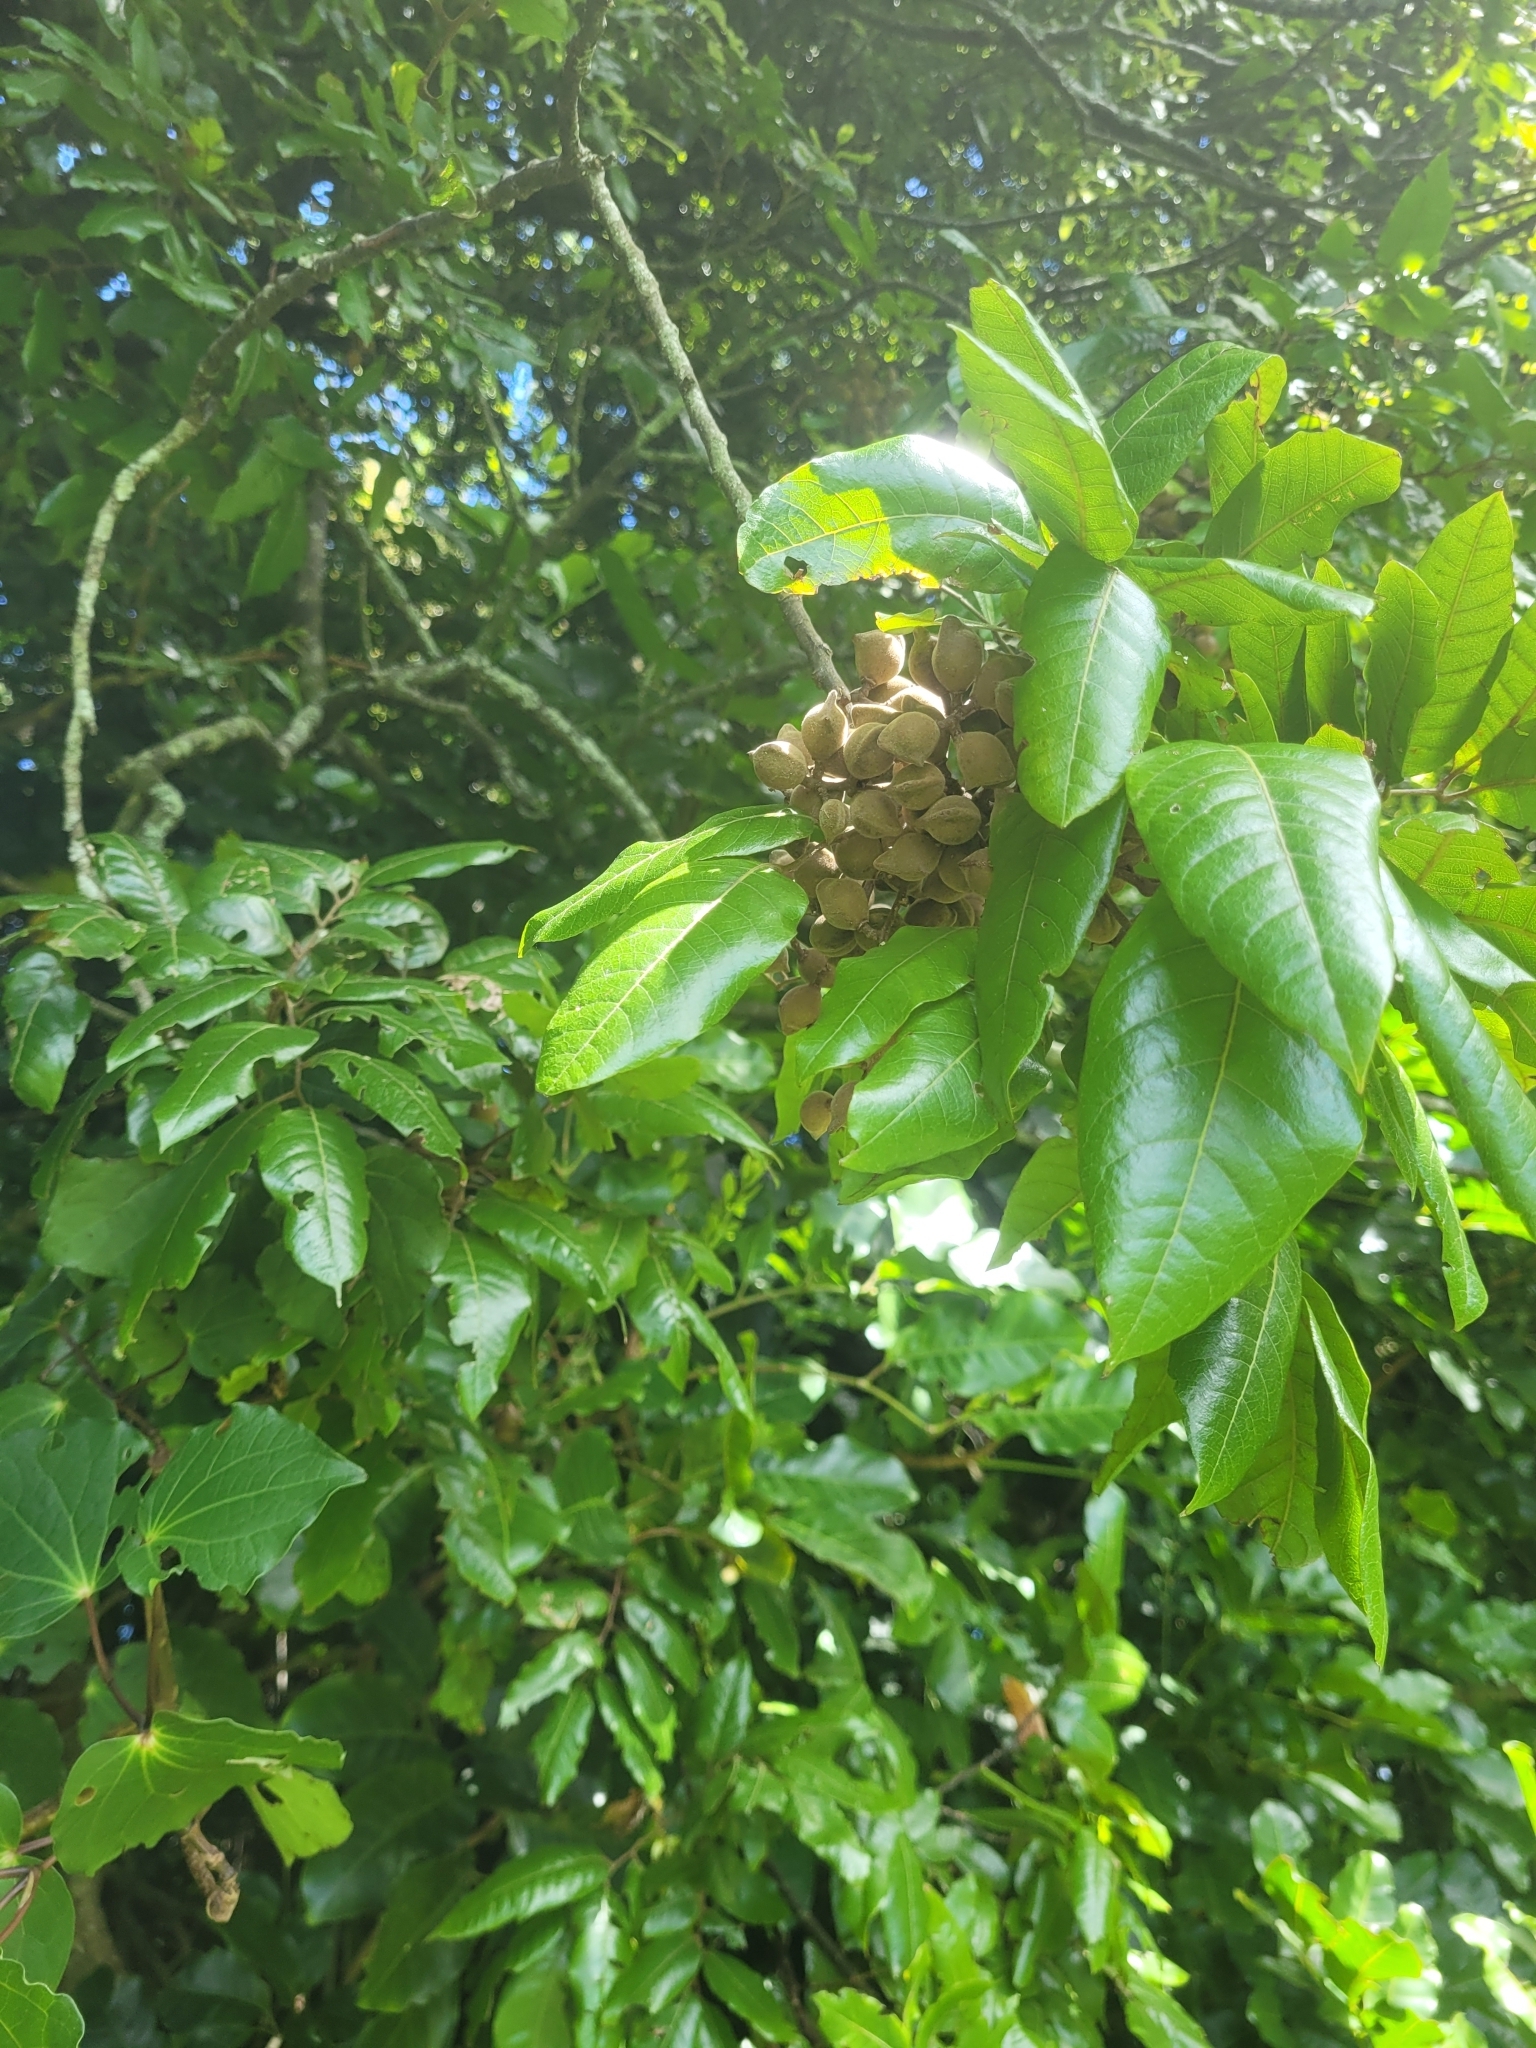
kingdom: Plantae
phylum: Tracheophyta
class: Magnoliopsida
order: Sapindales
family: Sapindaceae
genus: Alectryon
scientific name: Alectryon excelsus
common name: Three kings titoki
